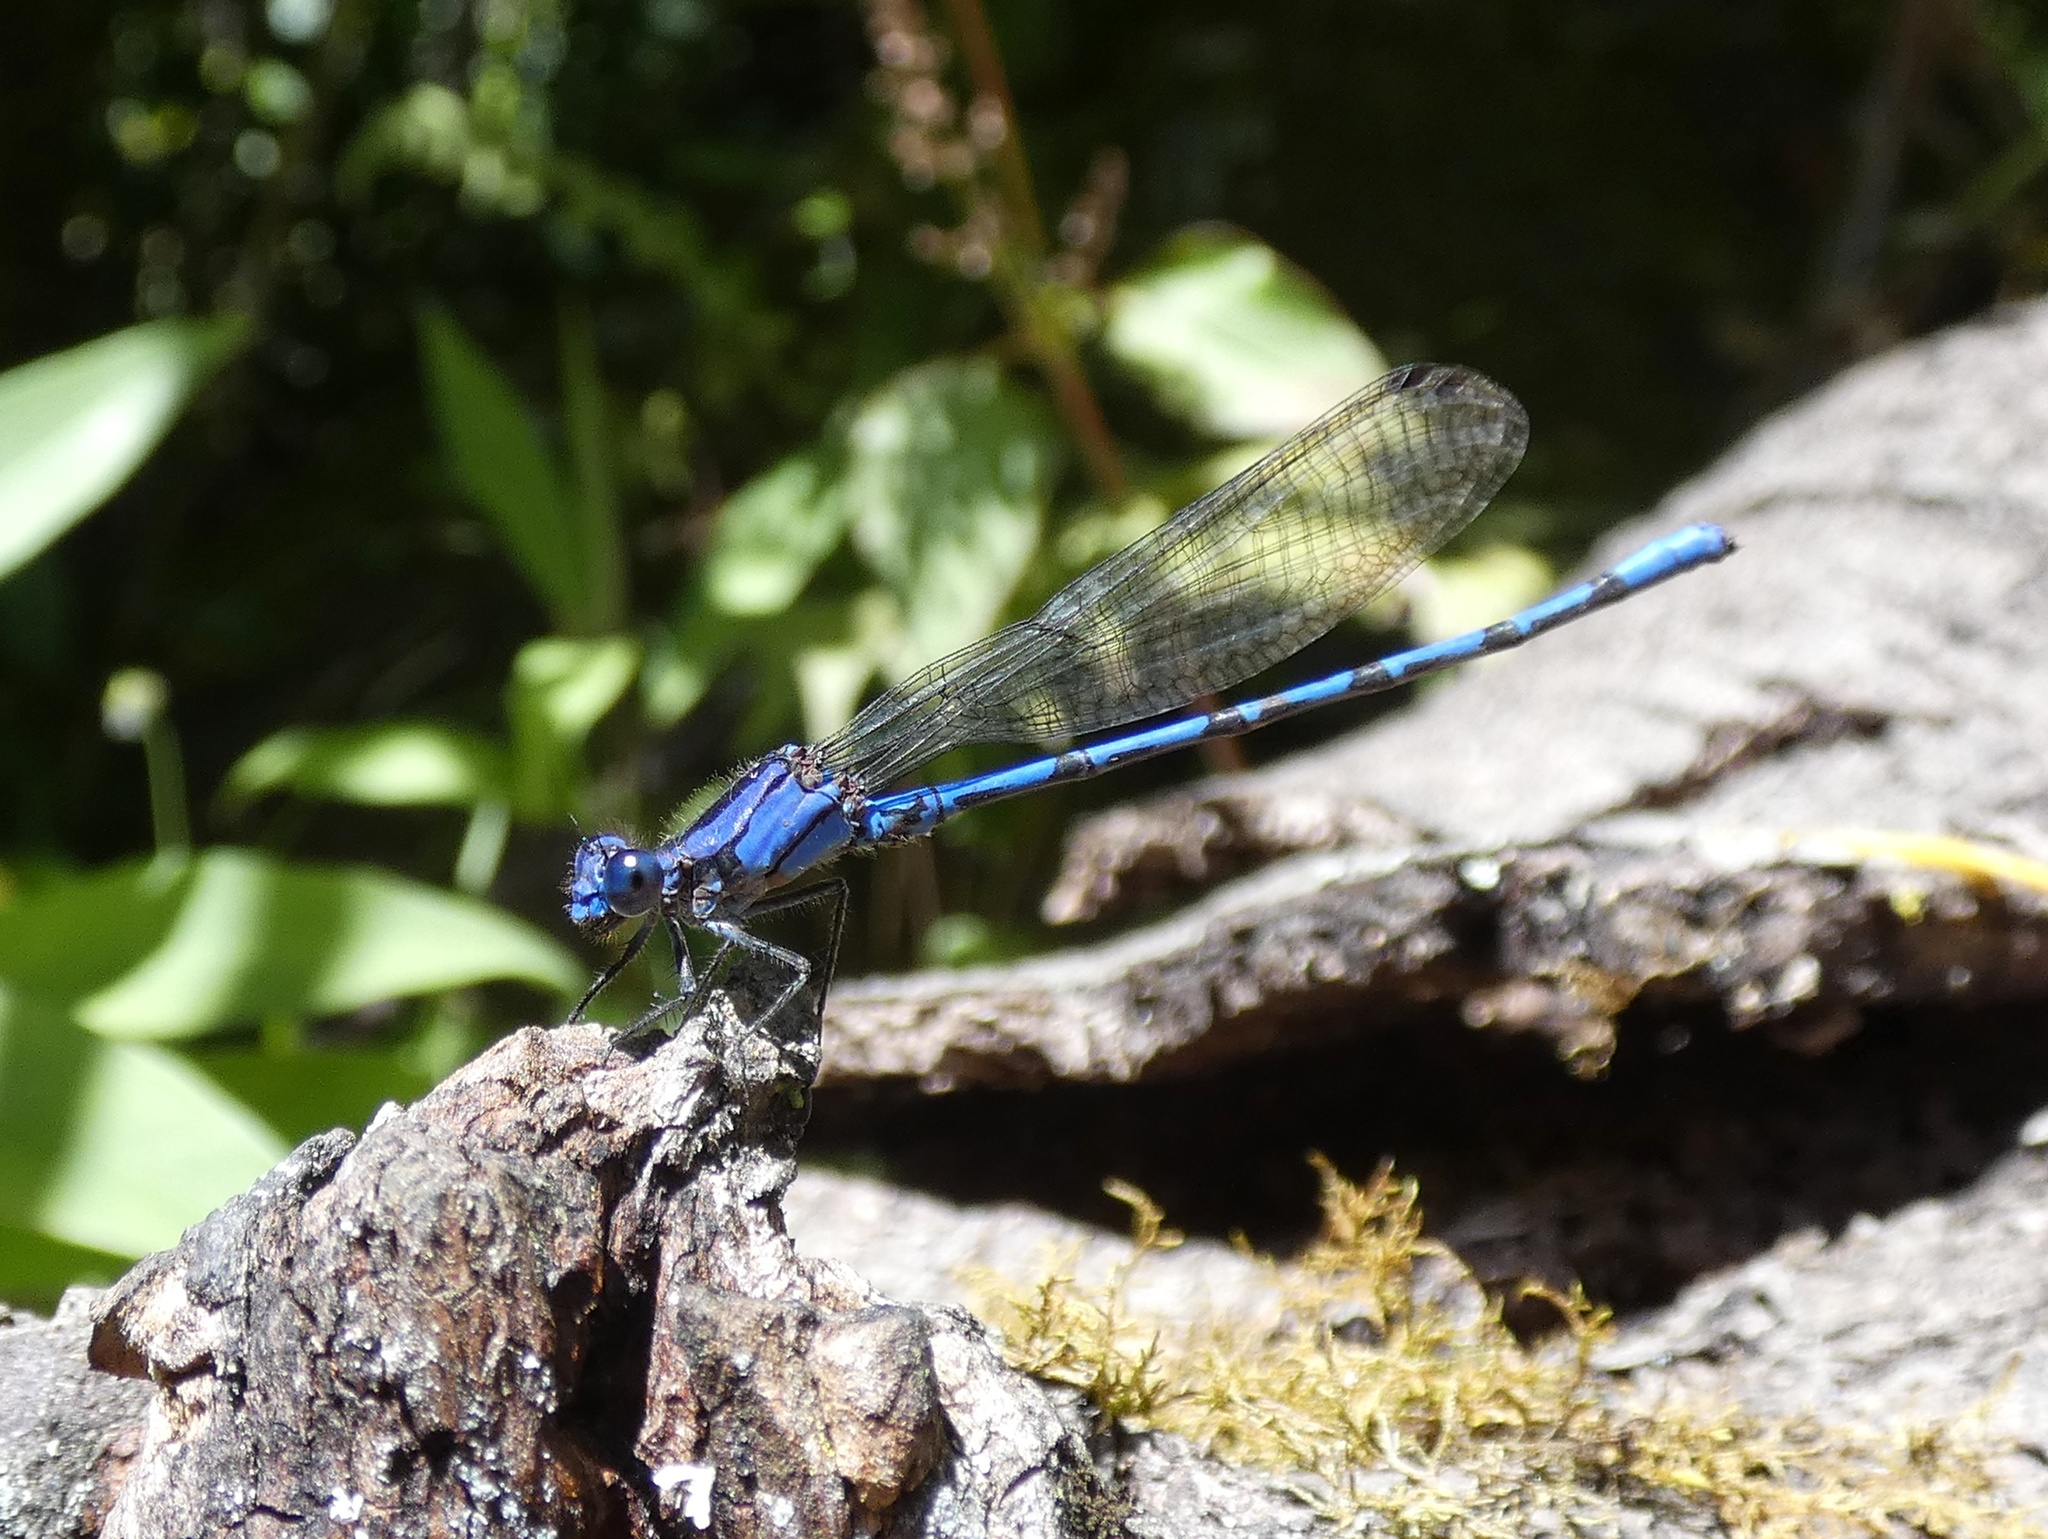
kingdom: Animalia
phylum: Arthropoda
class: Insecta
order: Odonata
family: Coenagrionidae
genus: Argia
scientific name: Argia elongata
